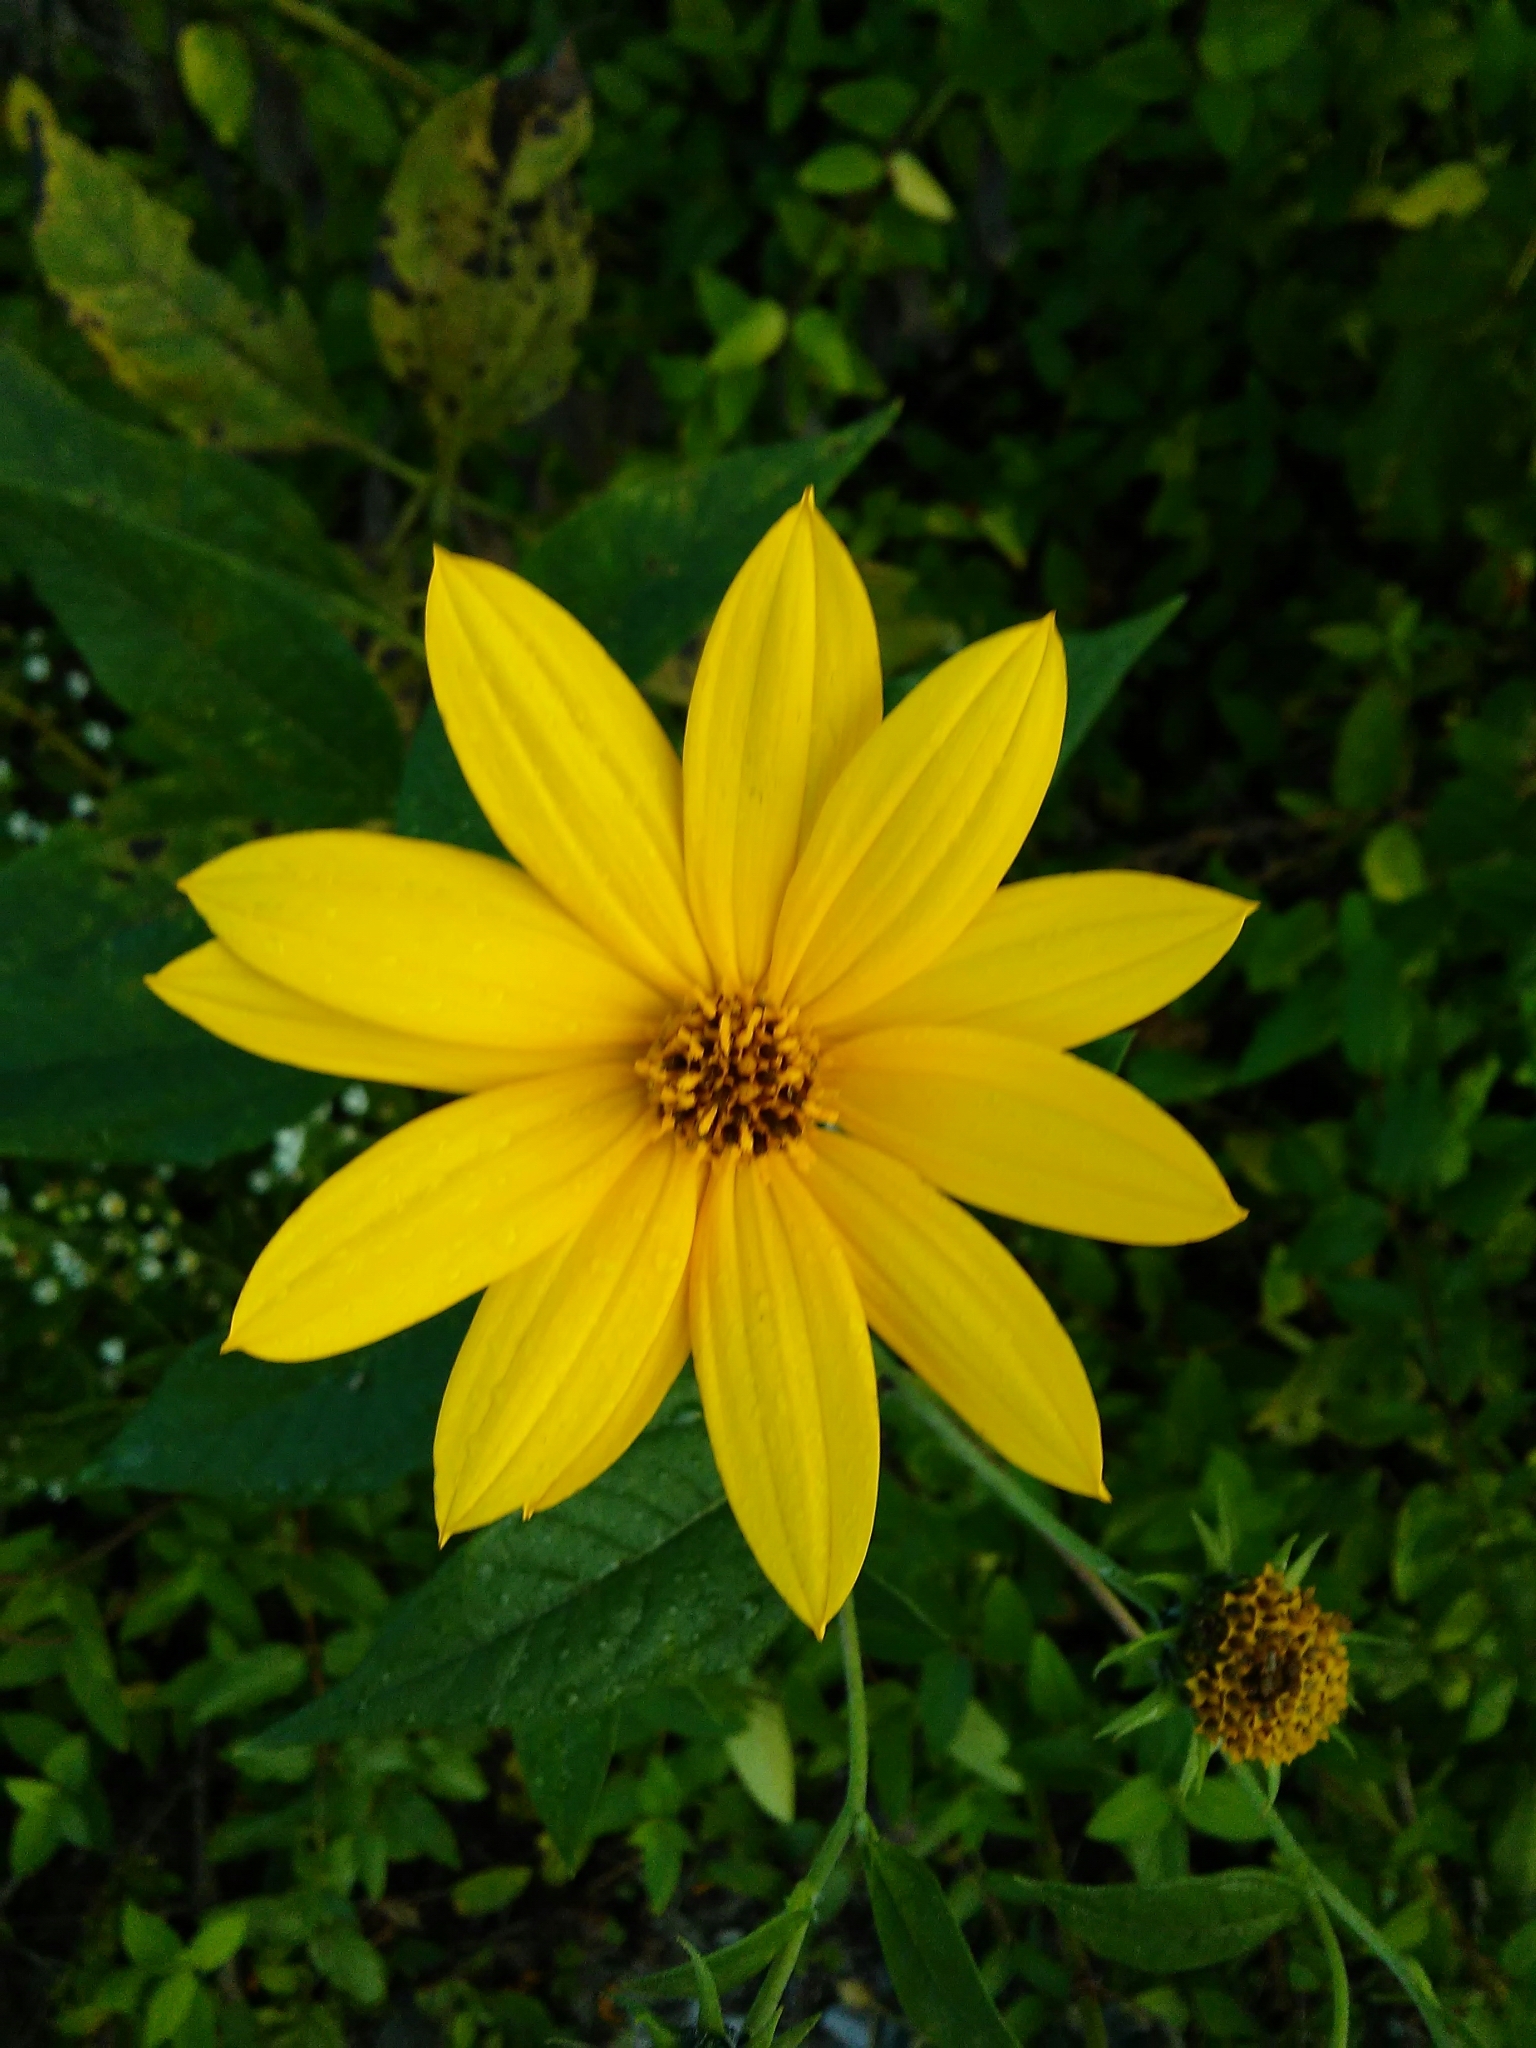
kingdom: Plantae
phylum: Tracheophyta
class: Magnoliopsida
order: Asterales
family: Asteraceae
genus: Helianthus
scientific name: Helianthus tuberosus
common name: Jerusalem artichoke
